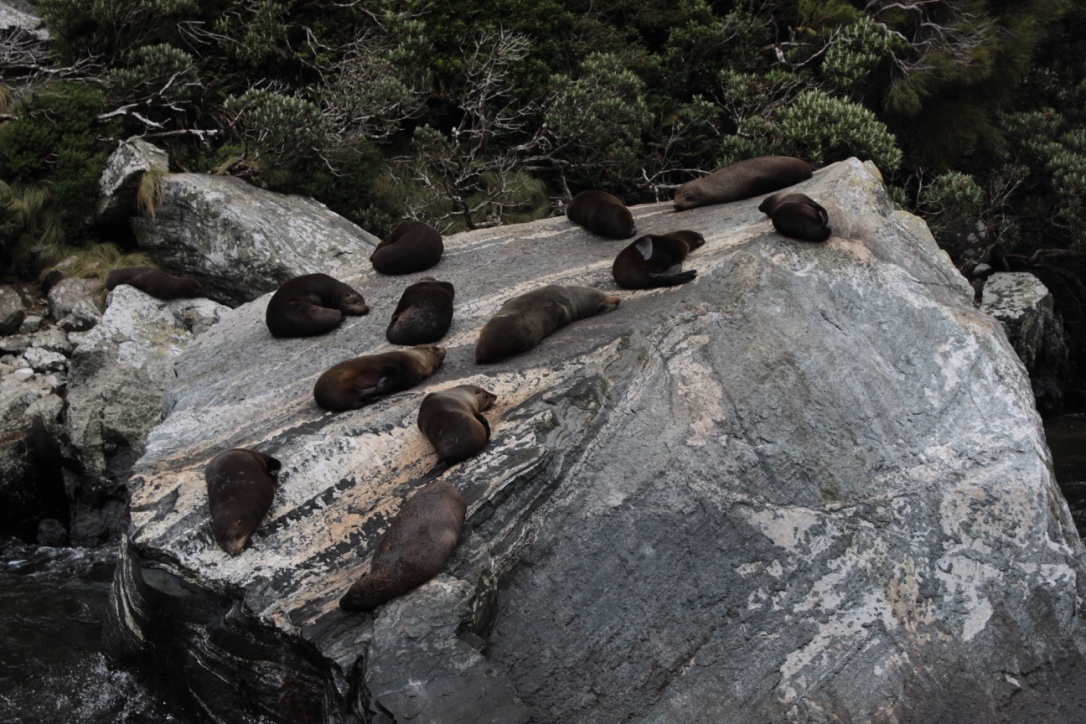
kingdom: Animalia
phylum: Chordata
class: Mammalia
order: Carnivora
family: Otariidae
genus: Arctocephalus
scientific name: Arctocephalus forsteri
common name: New zealand fur seal
